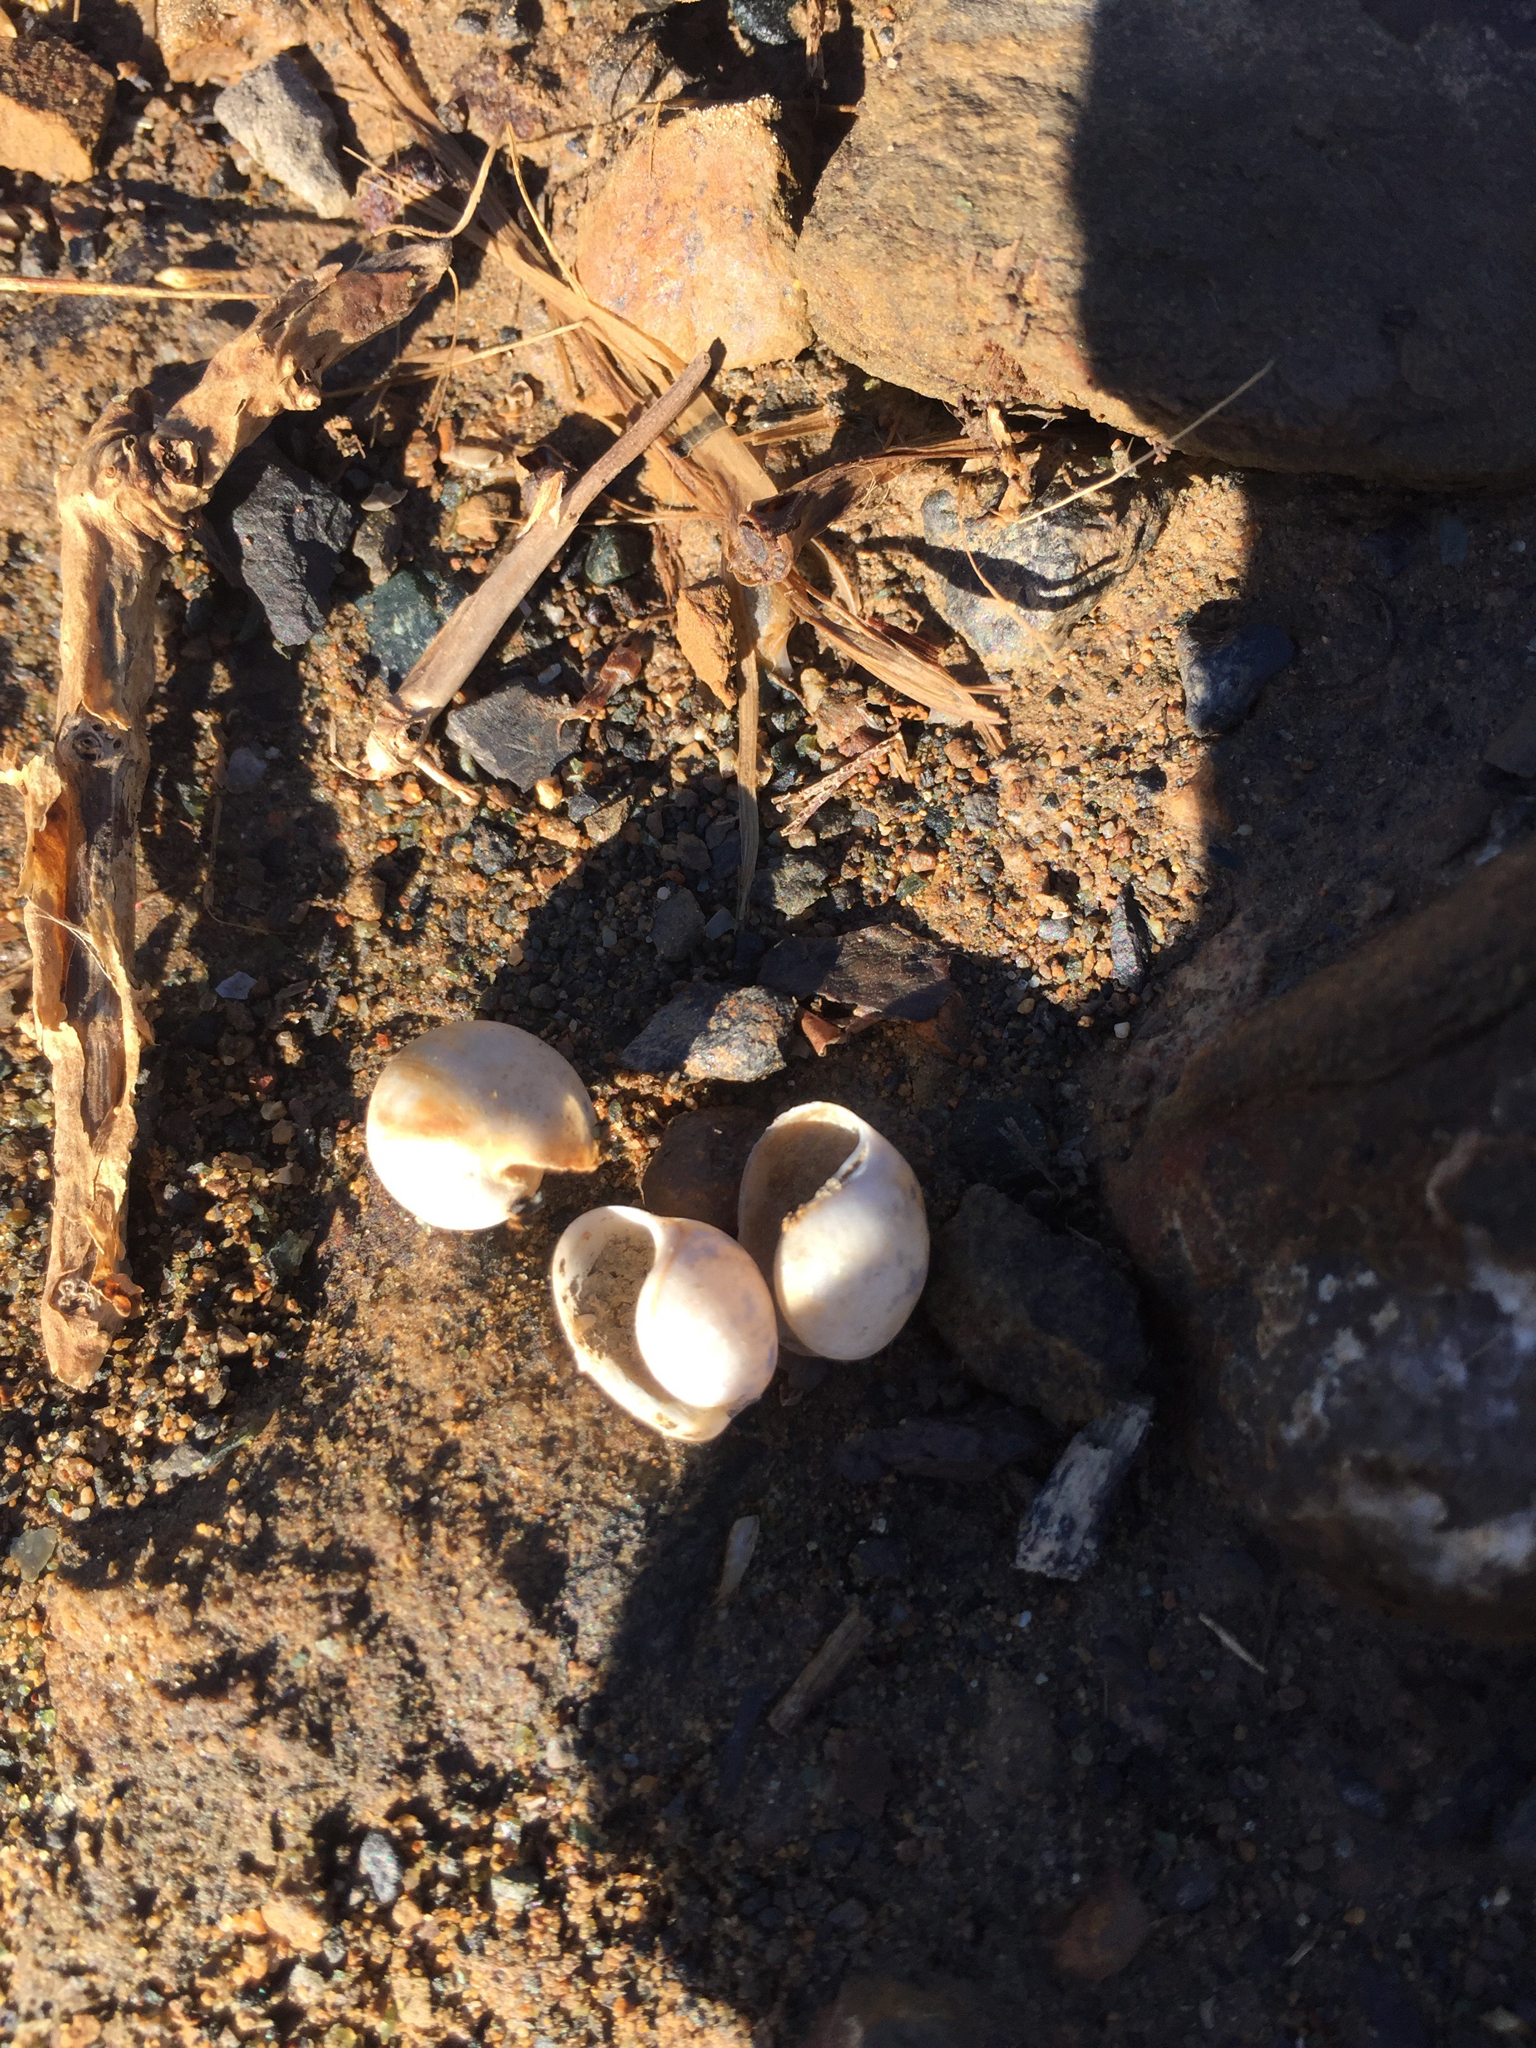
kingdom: Animalia
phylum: Mollusca
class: Gastropoda
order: Cephalaspidea
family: Haminoeidae
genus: Haloa
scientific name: Haloa japonica
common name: Japanese bubble snail
